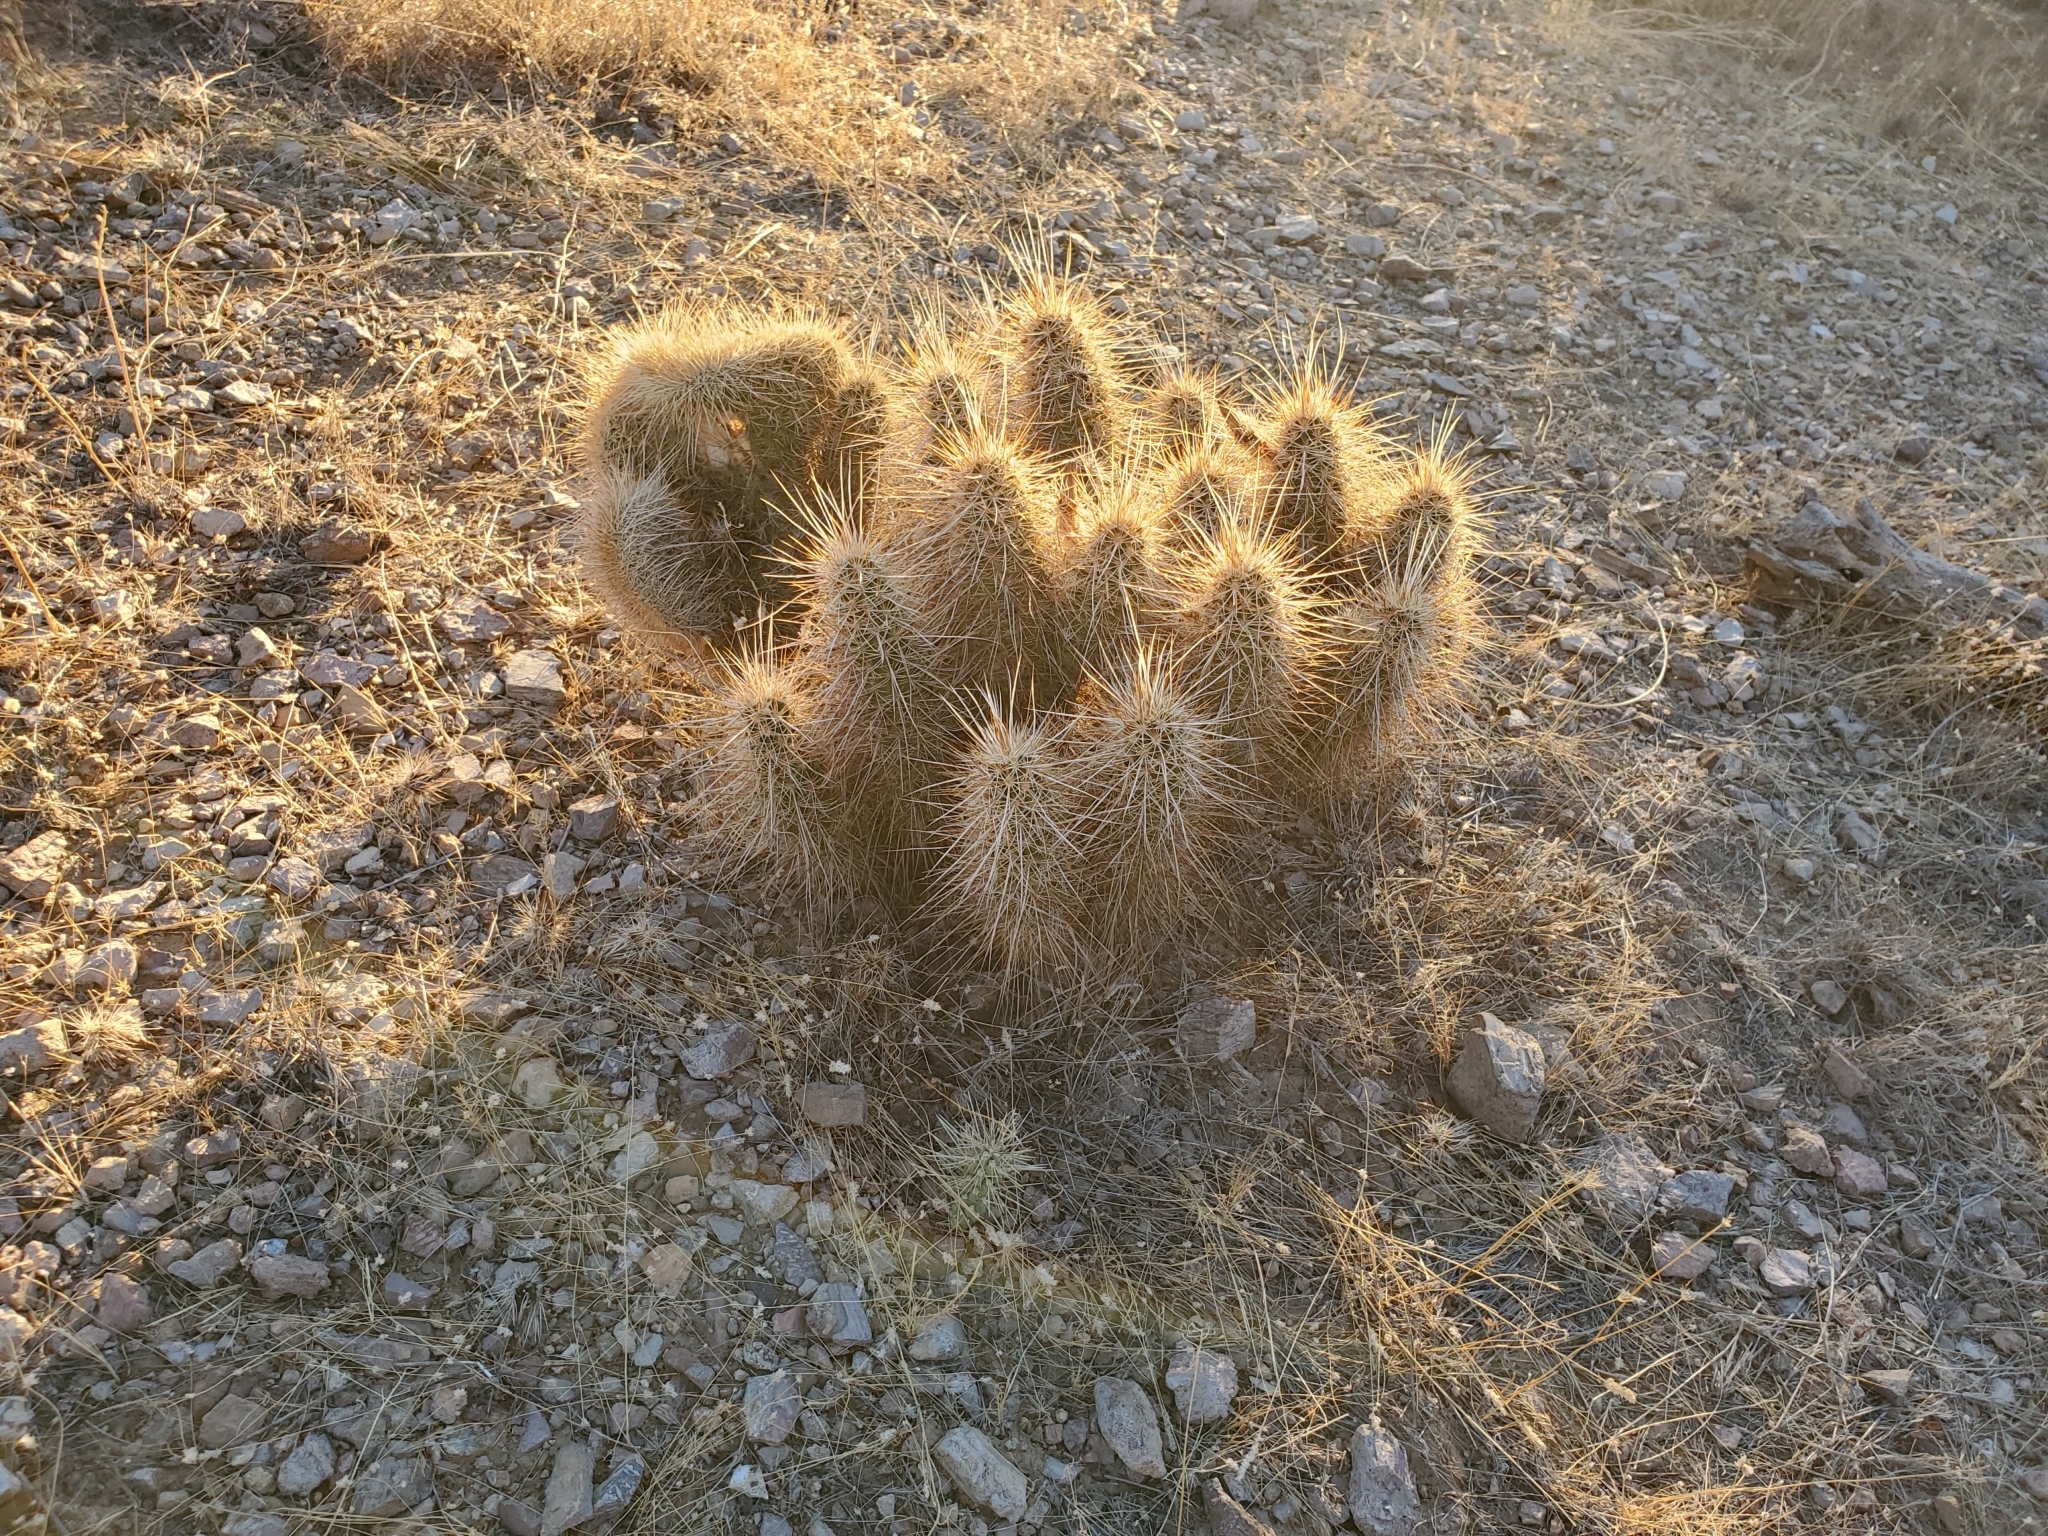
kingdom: Plantae
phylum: Tracheophyta
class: Magnoliopsida
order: Caryophyllales
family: Cactaceae
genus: Echinocereus
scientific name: Echinocereus engelmannii
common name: Engelmann's hedgehog cactus
